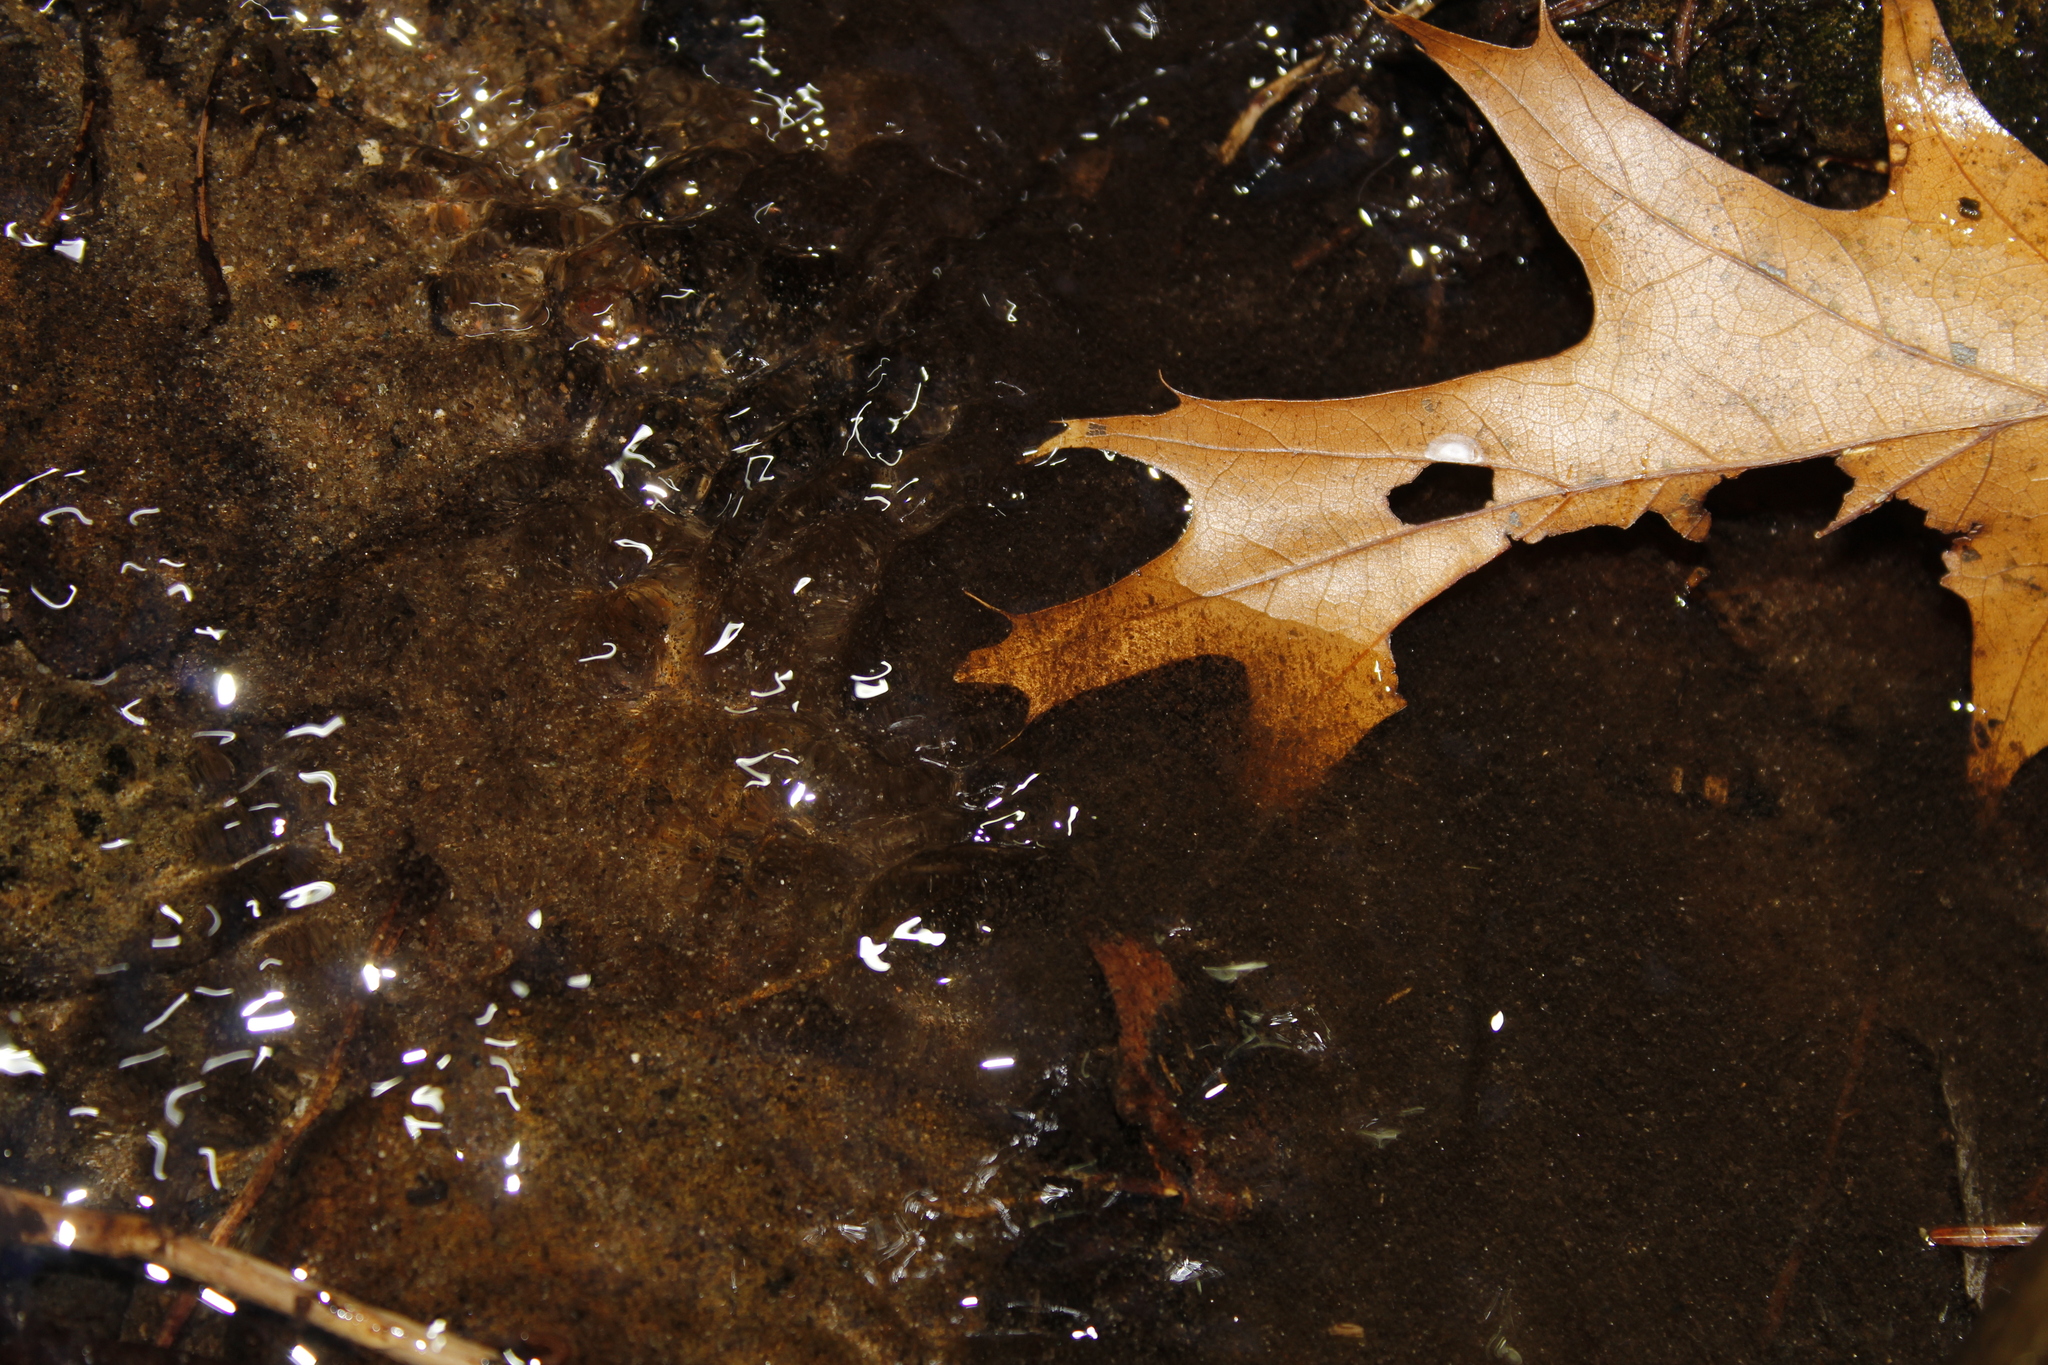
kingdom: Animalia
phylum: Chordata
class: Amphibia
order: Caudata
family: Plethodontidae
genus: Eurycea
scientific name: Eurycea bislineata
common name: Northern two-lined salamander
